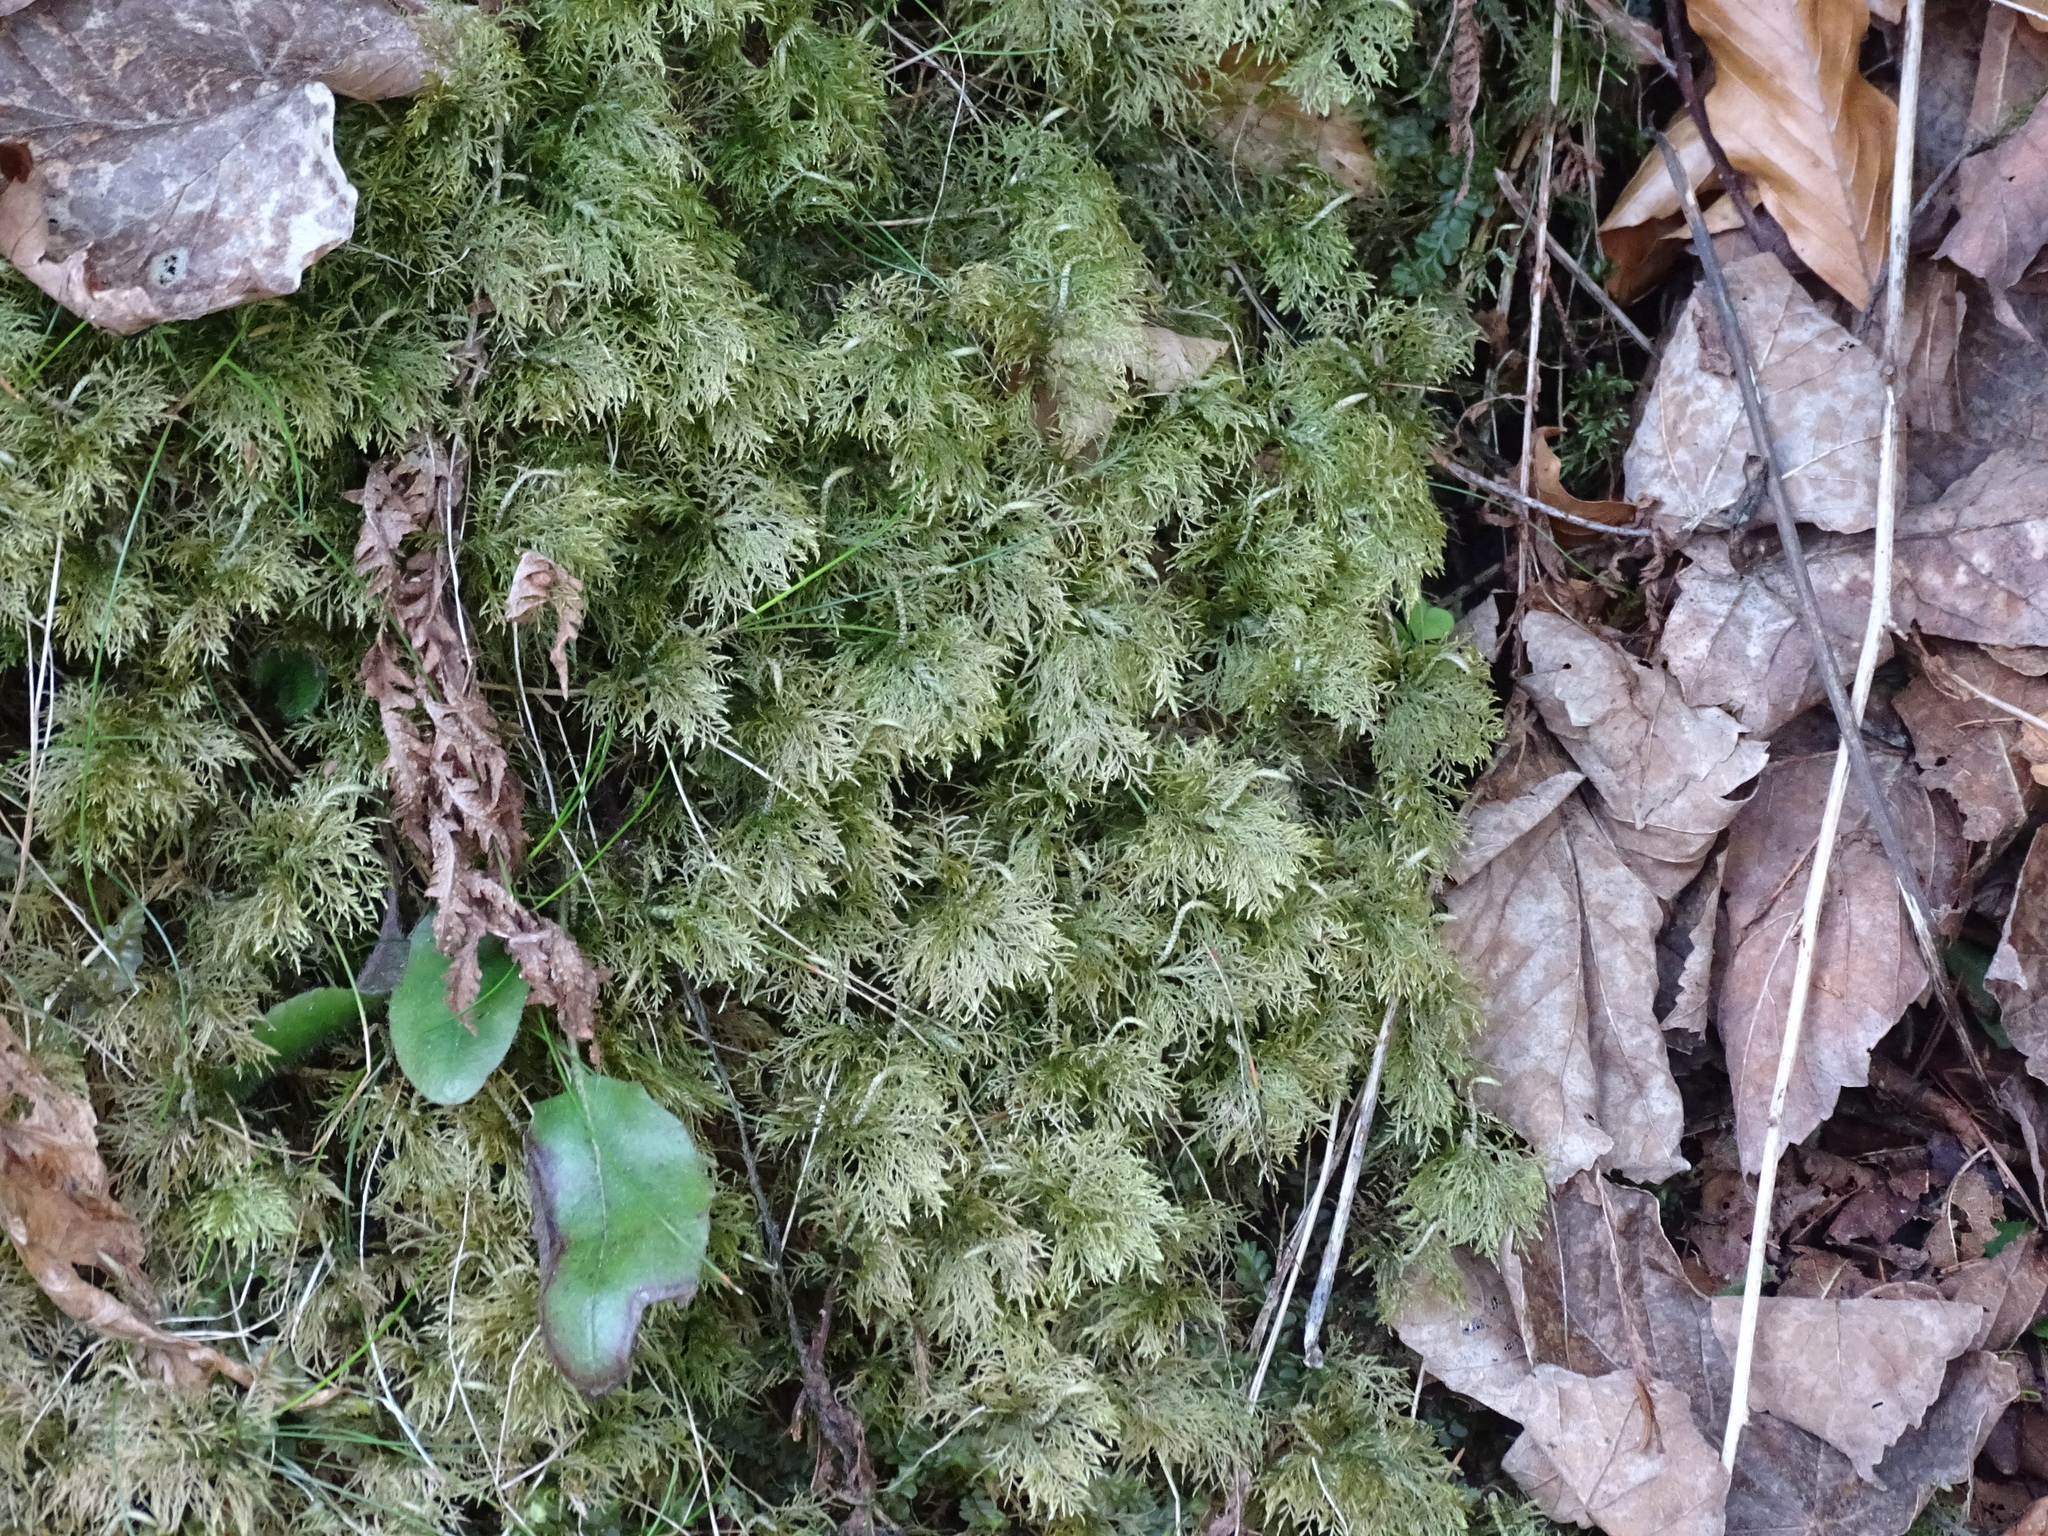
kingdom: Plantae
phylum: Bryophyta
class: Bryopsida
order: Hypnales
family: Hylocomiaceae
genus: Hylocomium
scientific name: Hylocomium splendens
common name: Stairstep moss
